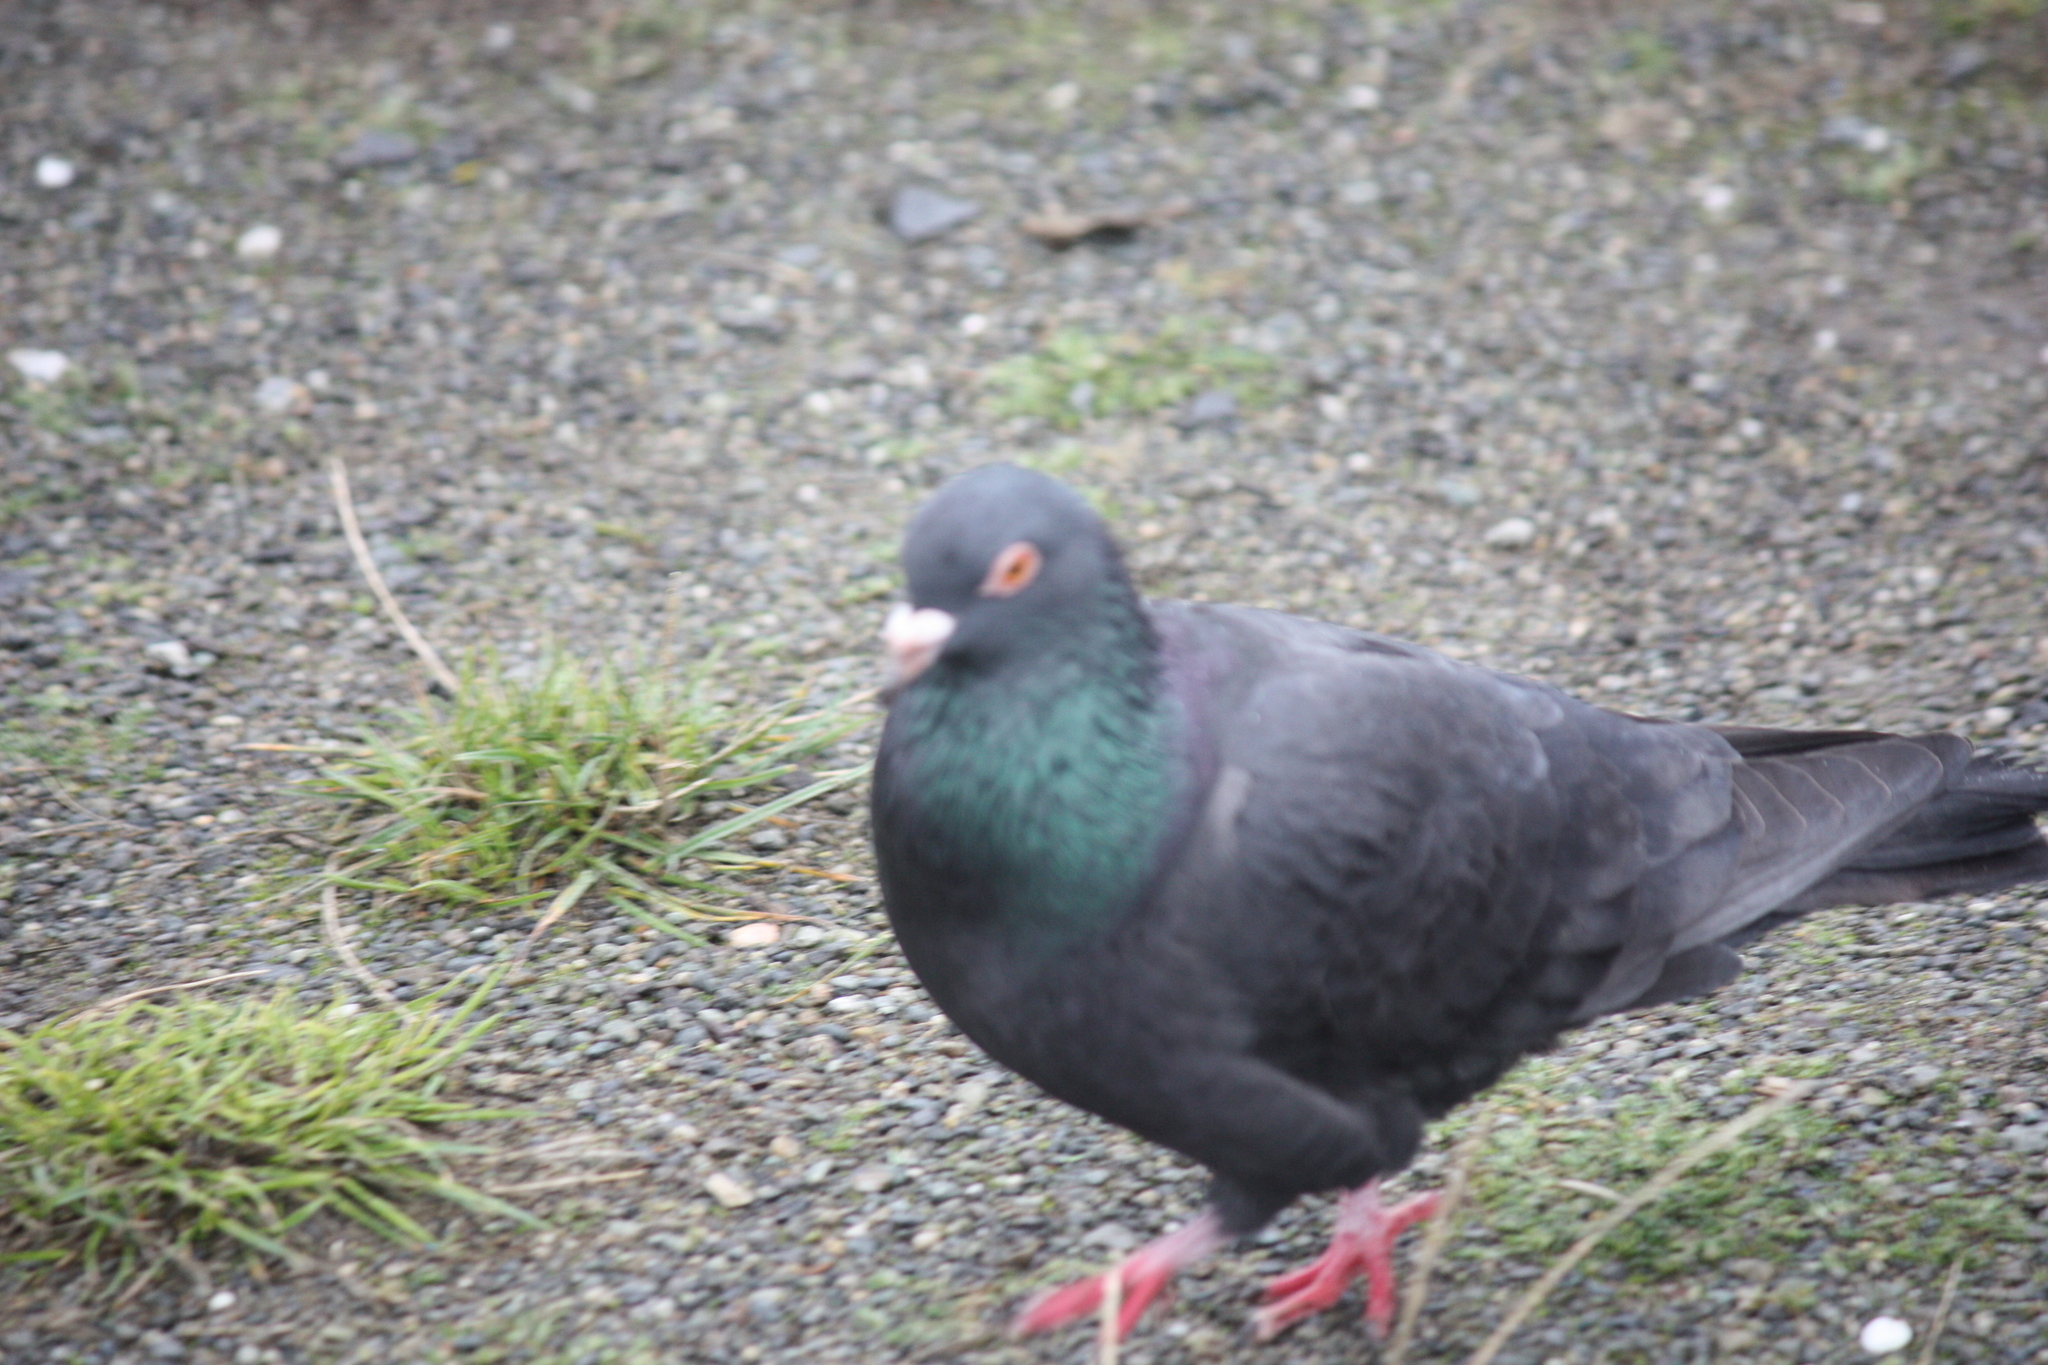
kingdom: Animalia
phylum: Chordata
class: Aves
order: Columbiformes
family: Columbidae
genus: Columba
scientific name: Columba livia
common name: Rock pigeon
